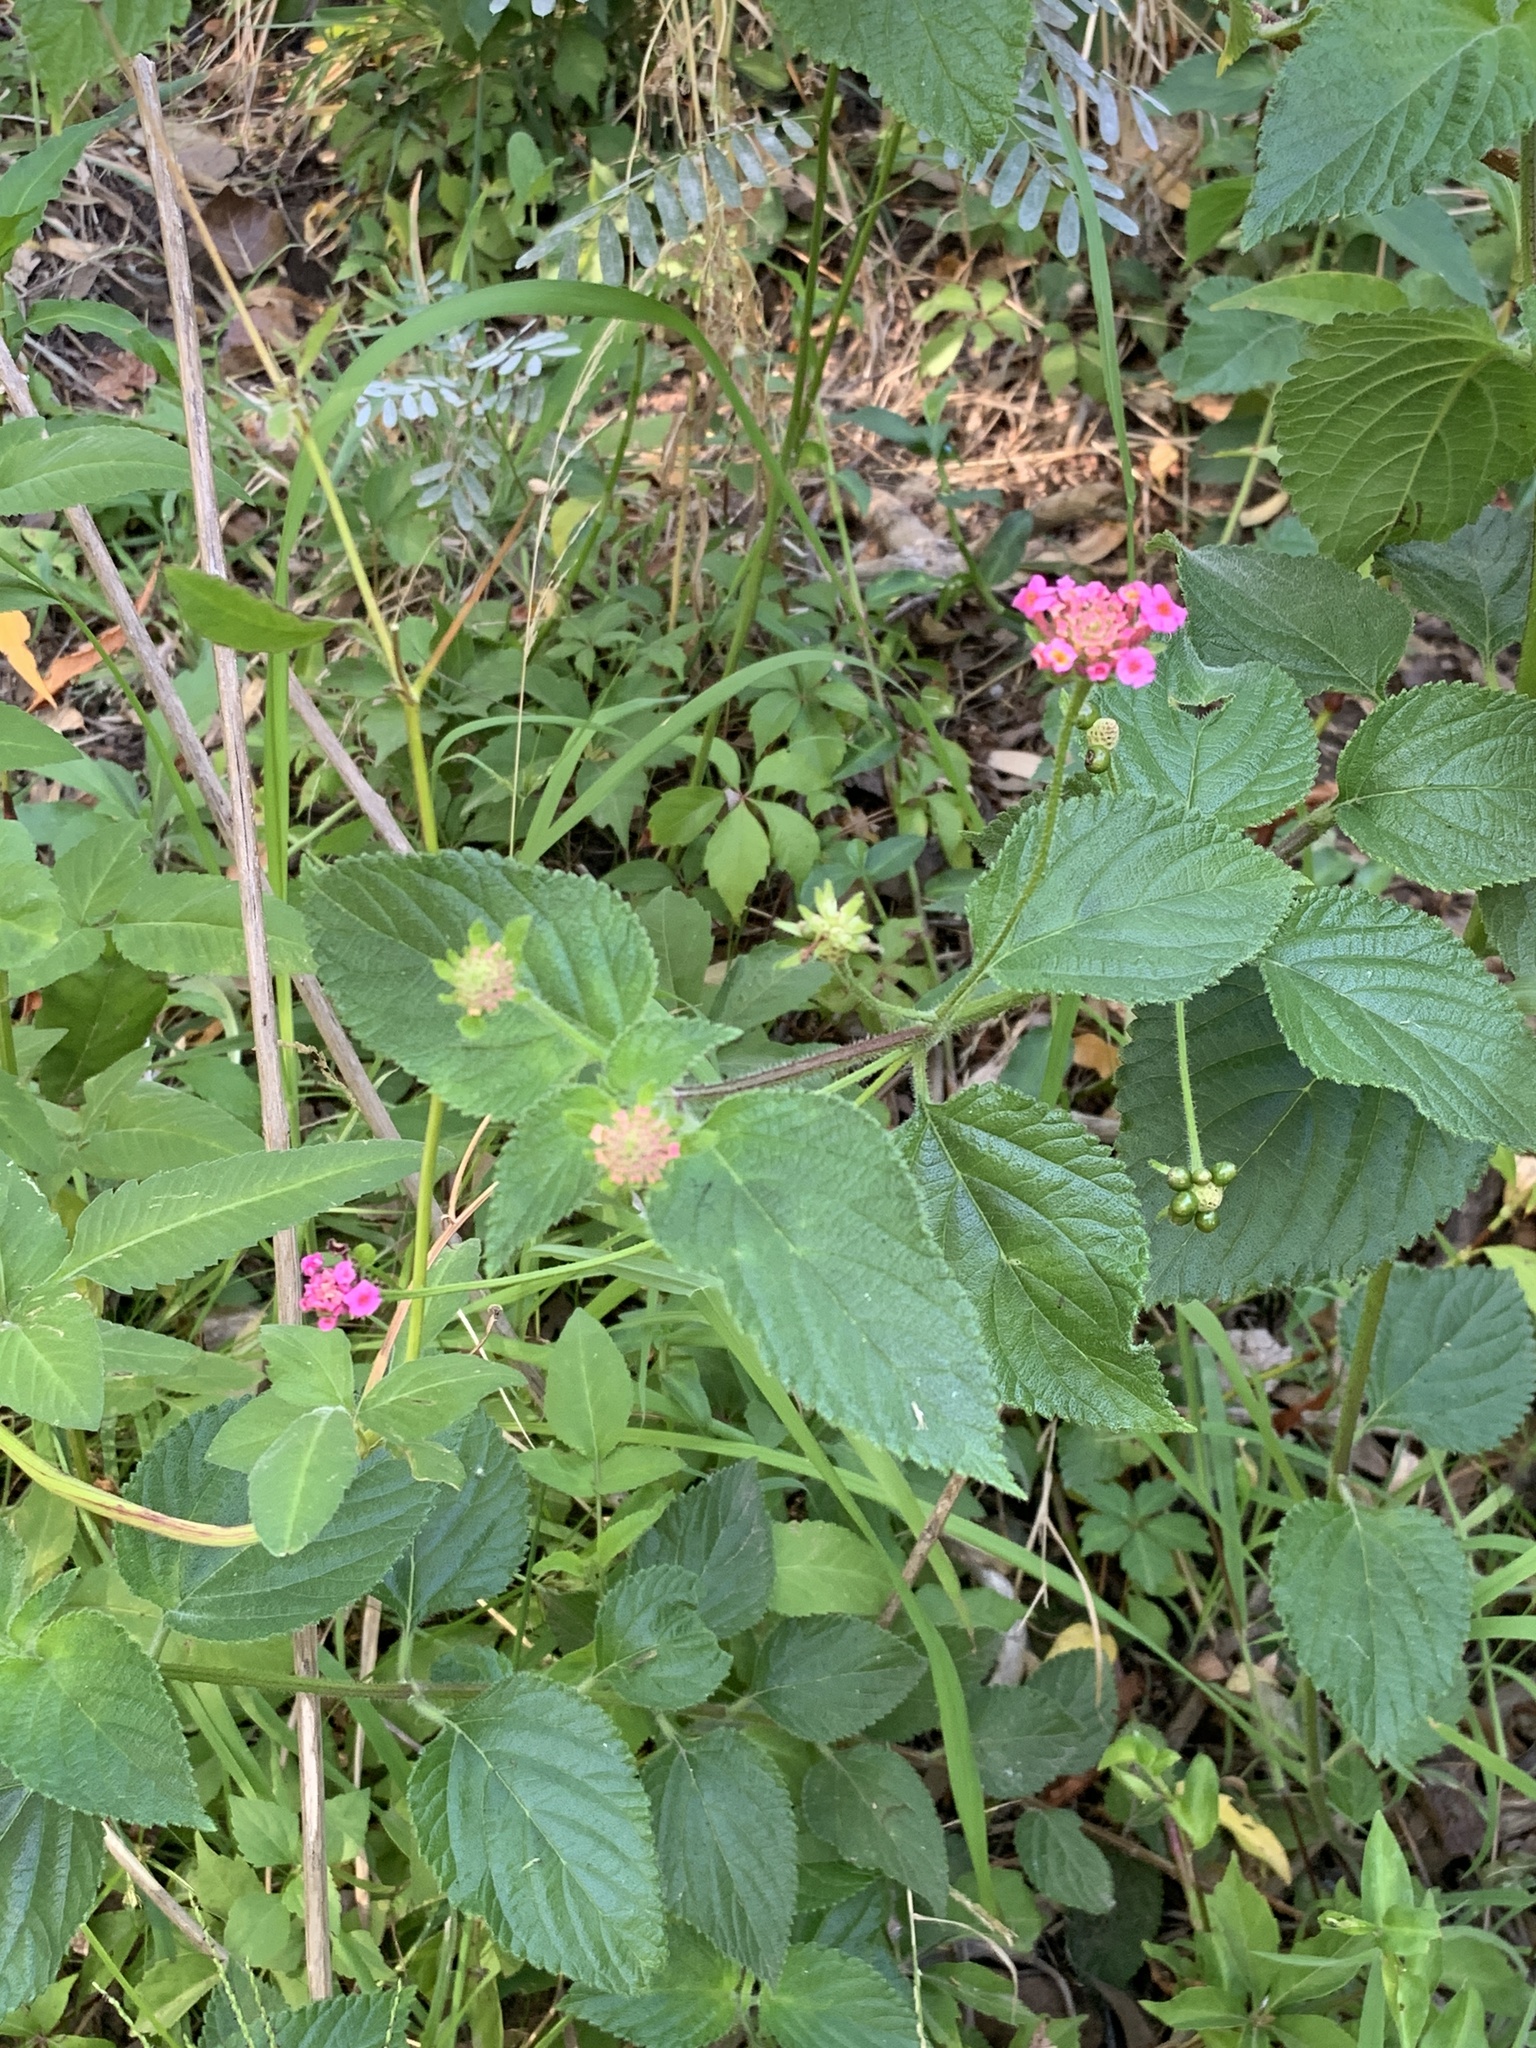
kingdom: Plantae
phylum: Tracheophyta
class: Magnoliopsida
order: Lamiales
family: Verbenaceae
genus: Lantana
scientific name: Lantana camara
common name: Lantana
